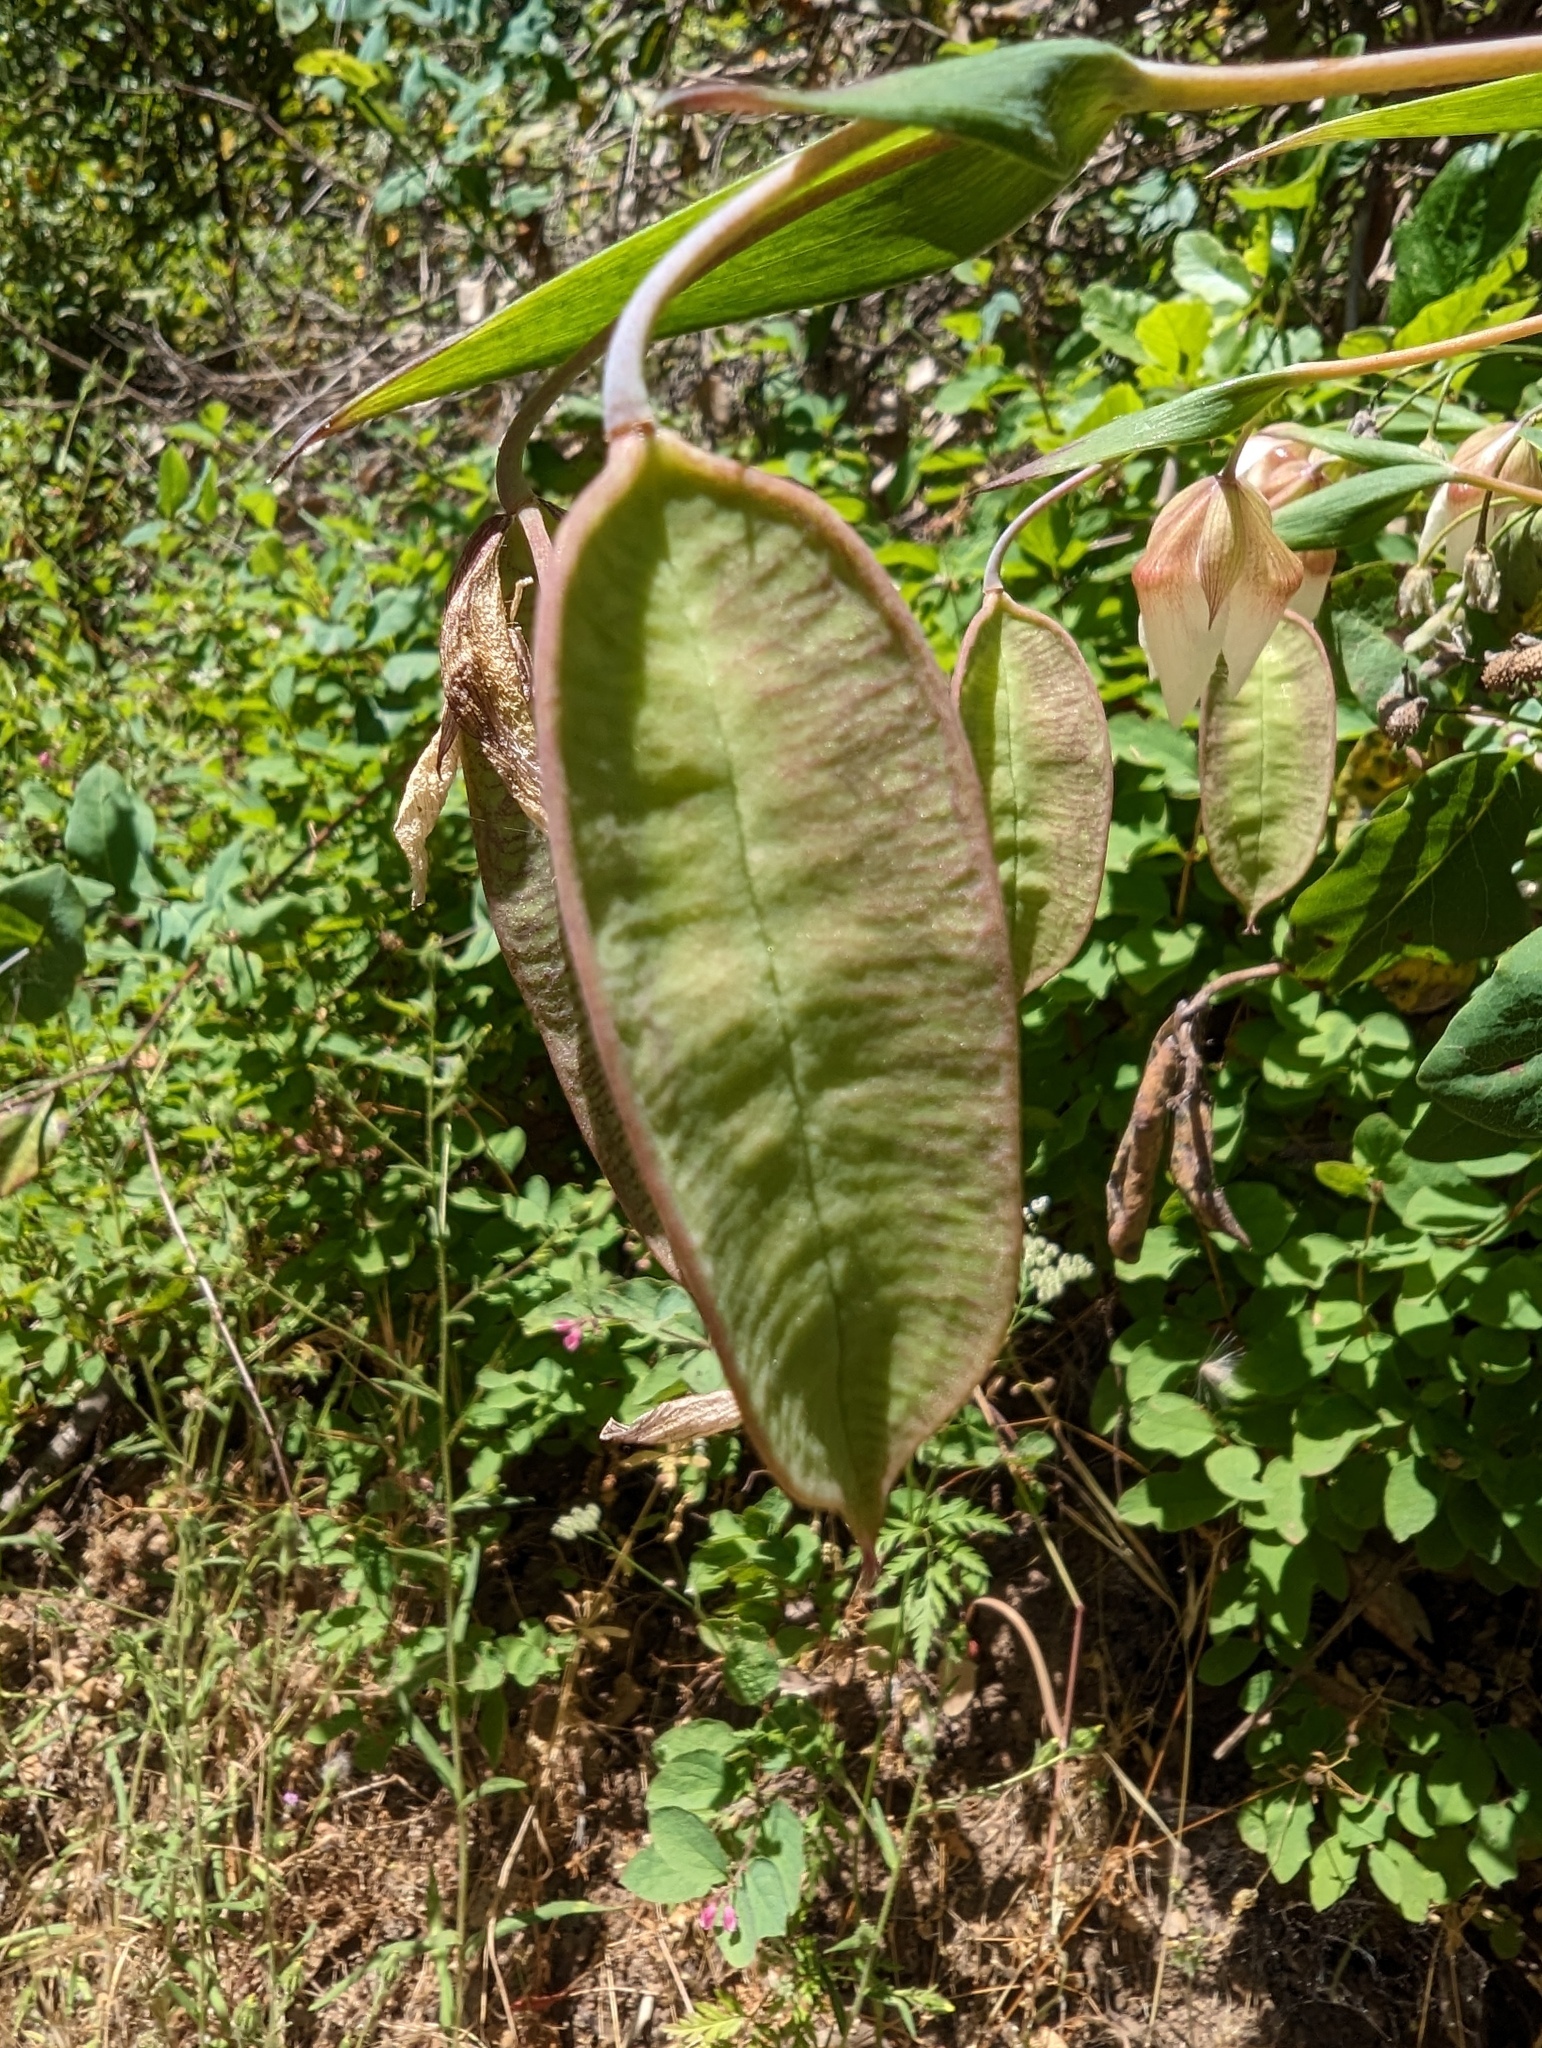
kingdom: Plantae
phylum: Tracheophyta
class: Liliopsida
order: Liliales
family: Liliaceae
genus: Calochortus
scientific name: Calochortus albus
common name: Fairy-lantern
